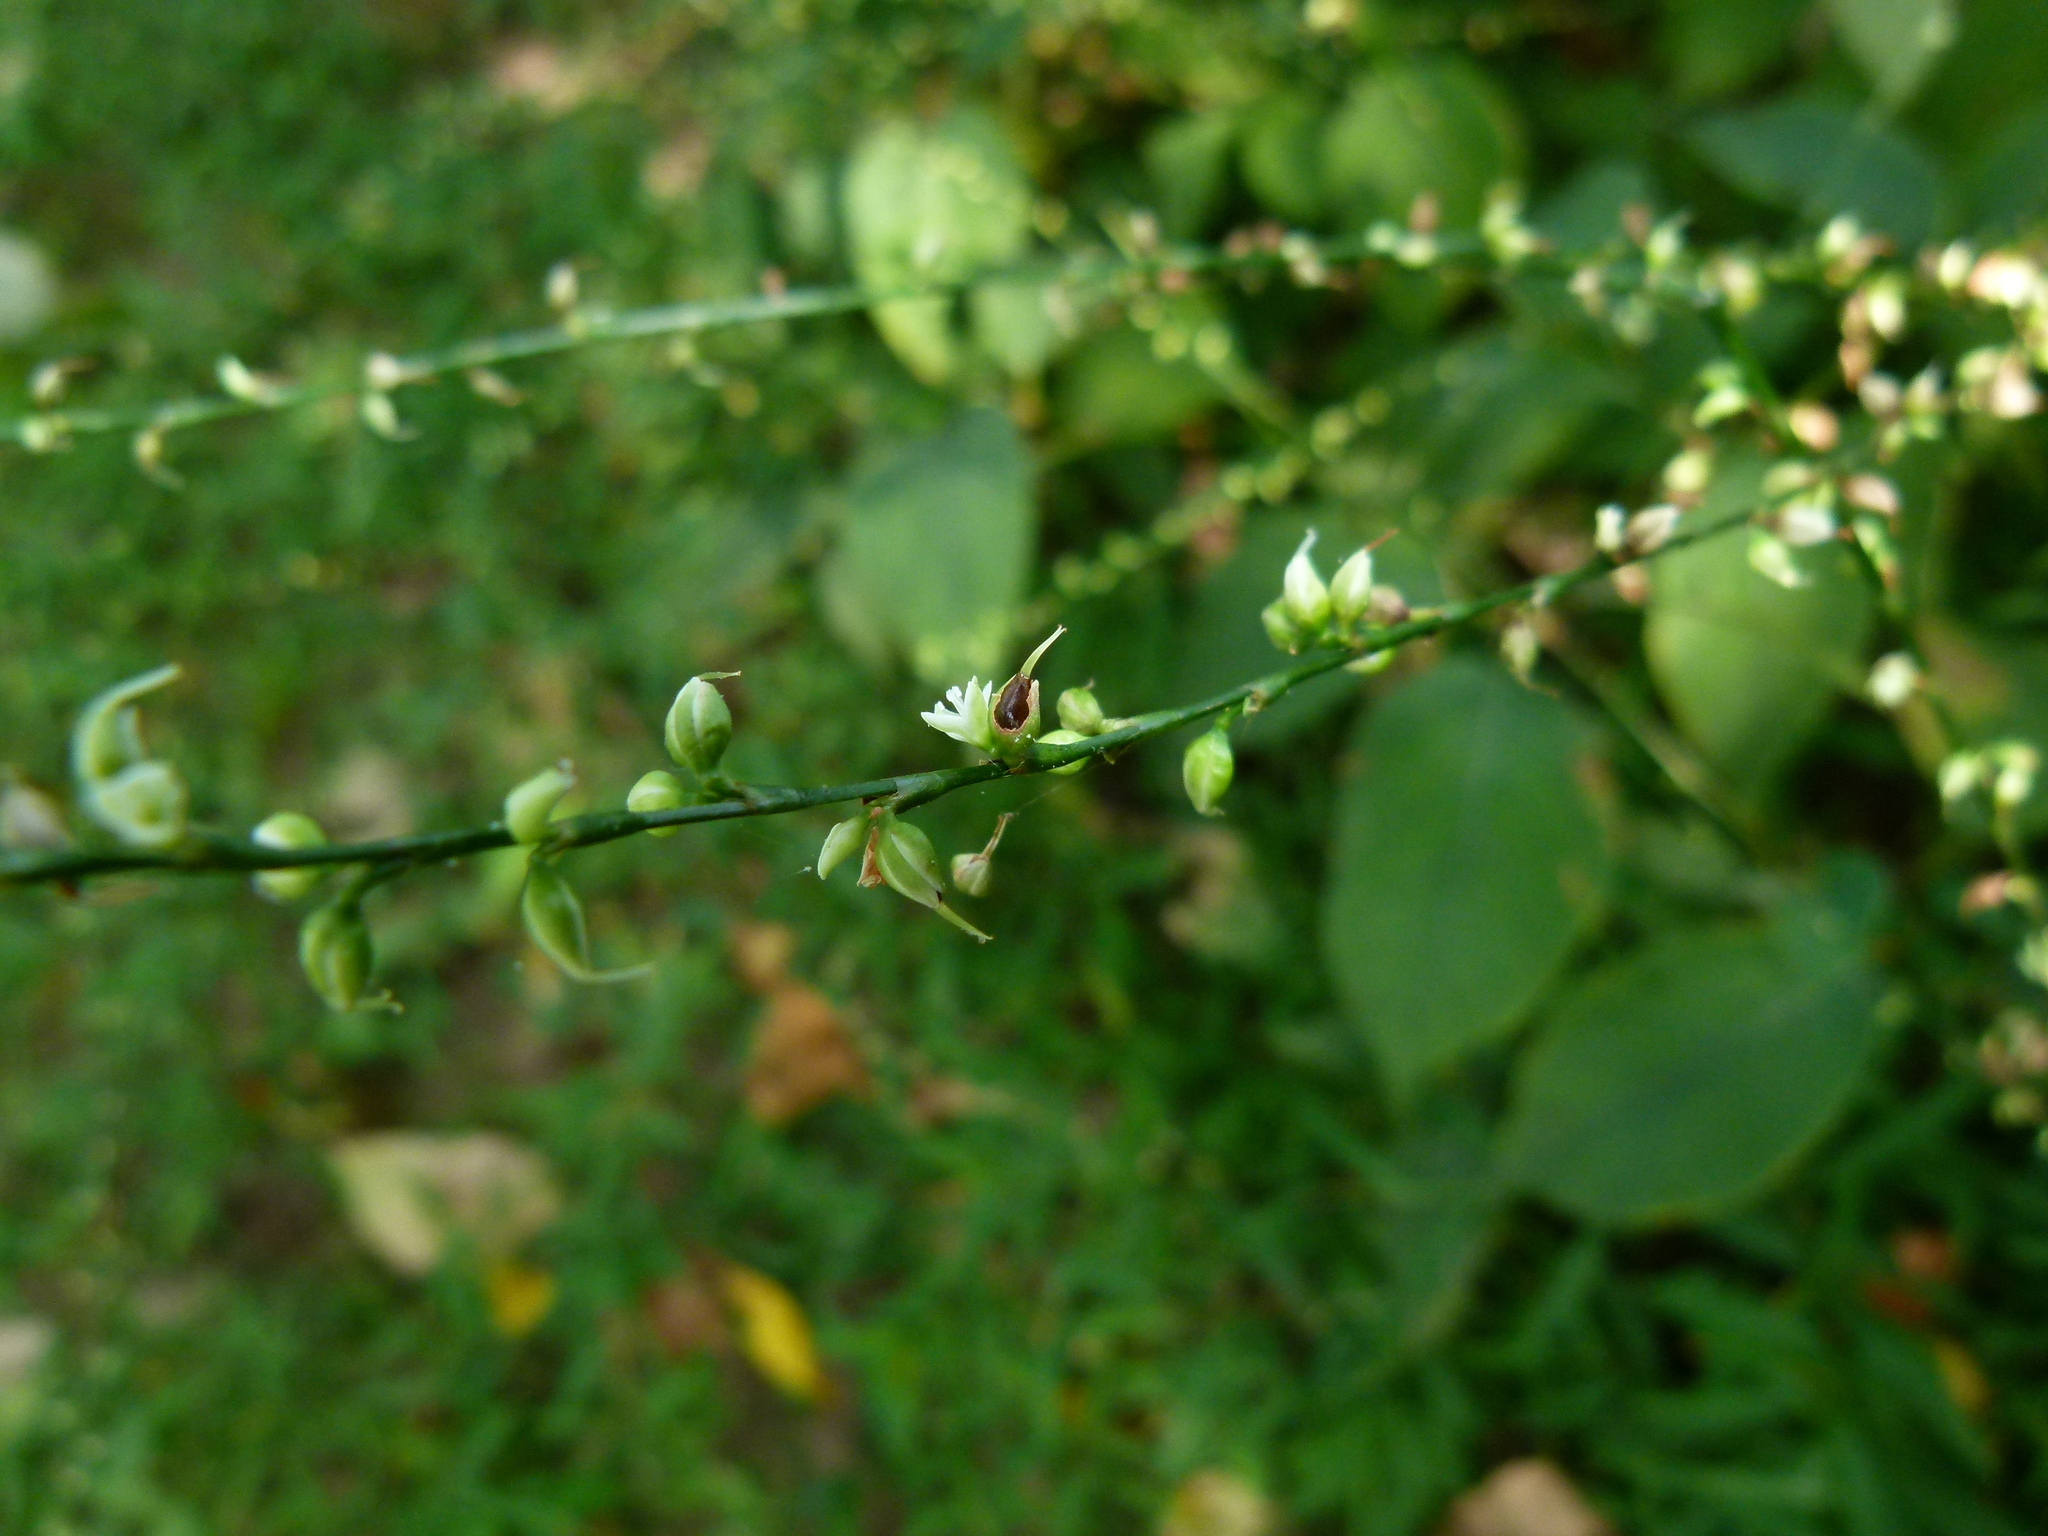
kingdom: Plantae
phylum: Tracheophyta
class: Magnoliopsida
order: Caryophyllales
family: Polygonaceae
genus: Persicaria
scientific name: Persicaria virginiana
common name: Jumpseed
